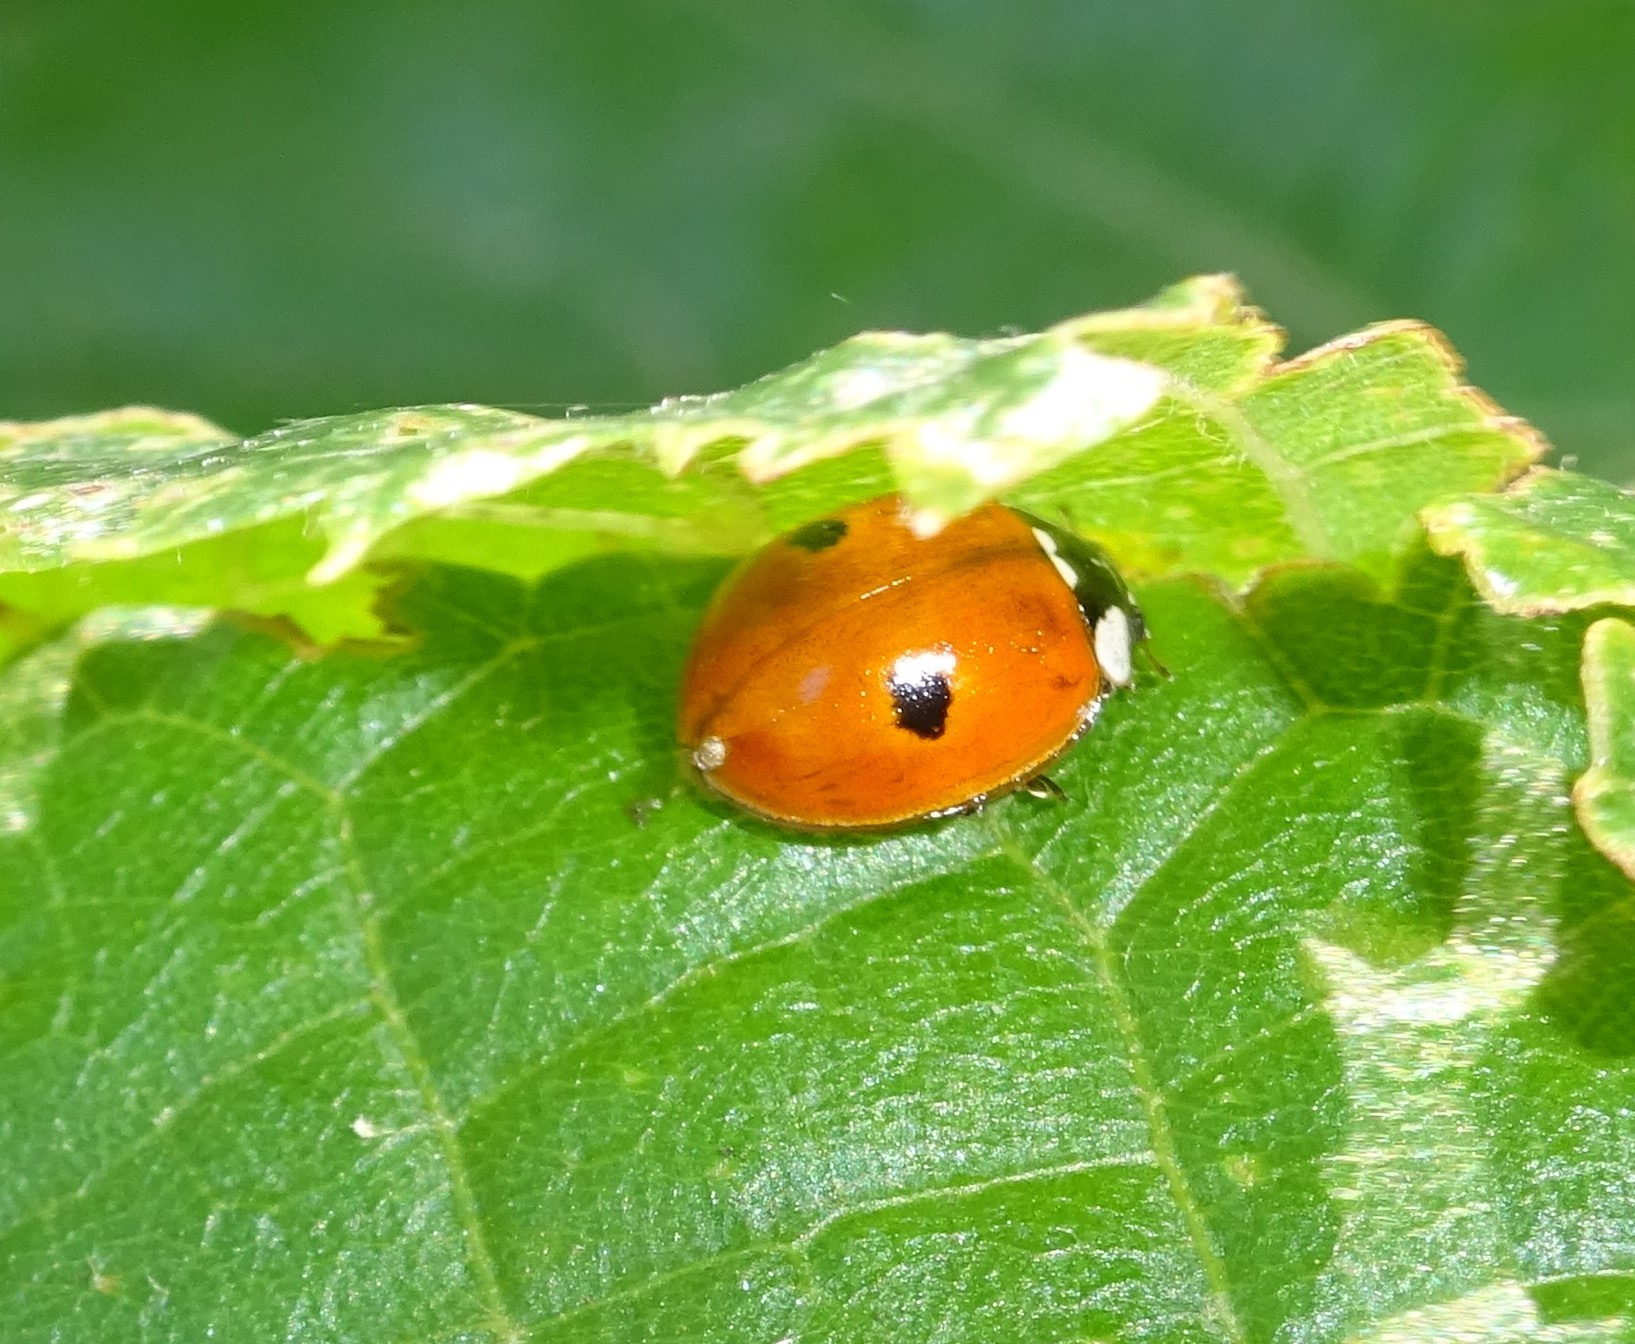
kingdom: Animalia
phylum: Arthropoda
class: Insecta
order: Coleoptera
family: Coccinellidae
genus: Adalia
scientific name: Adalia bipunctata
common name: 2-spot ladybird
